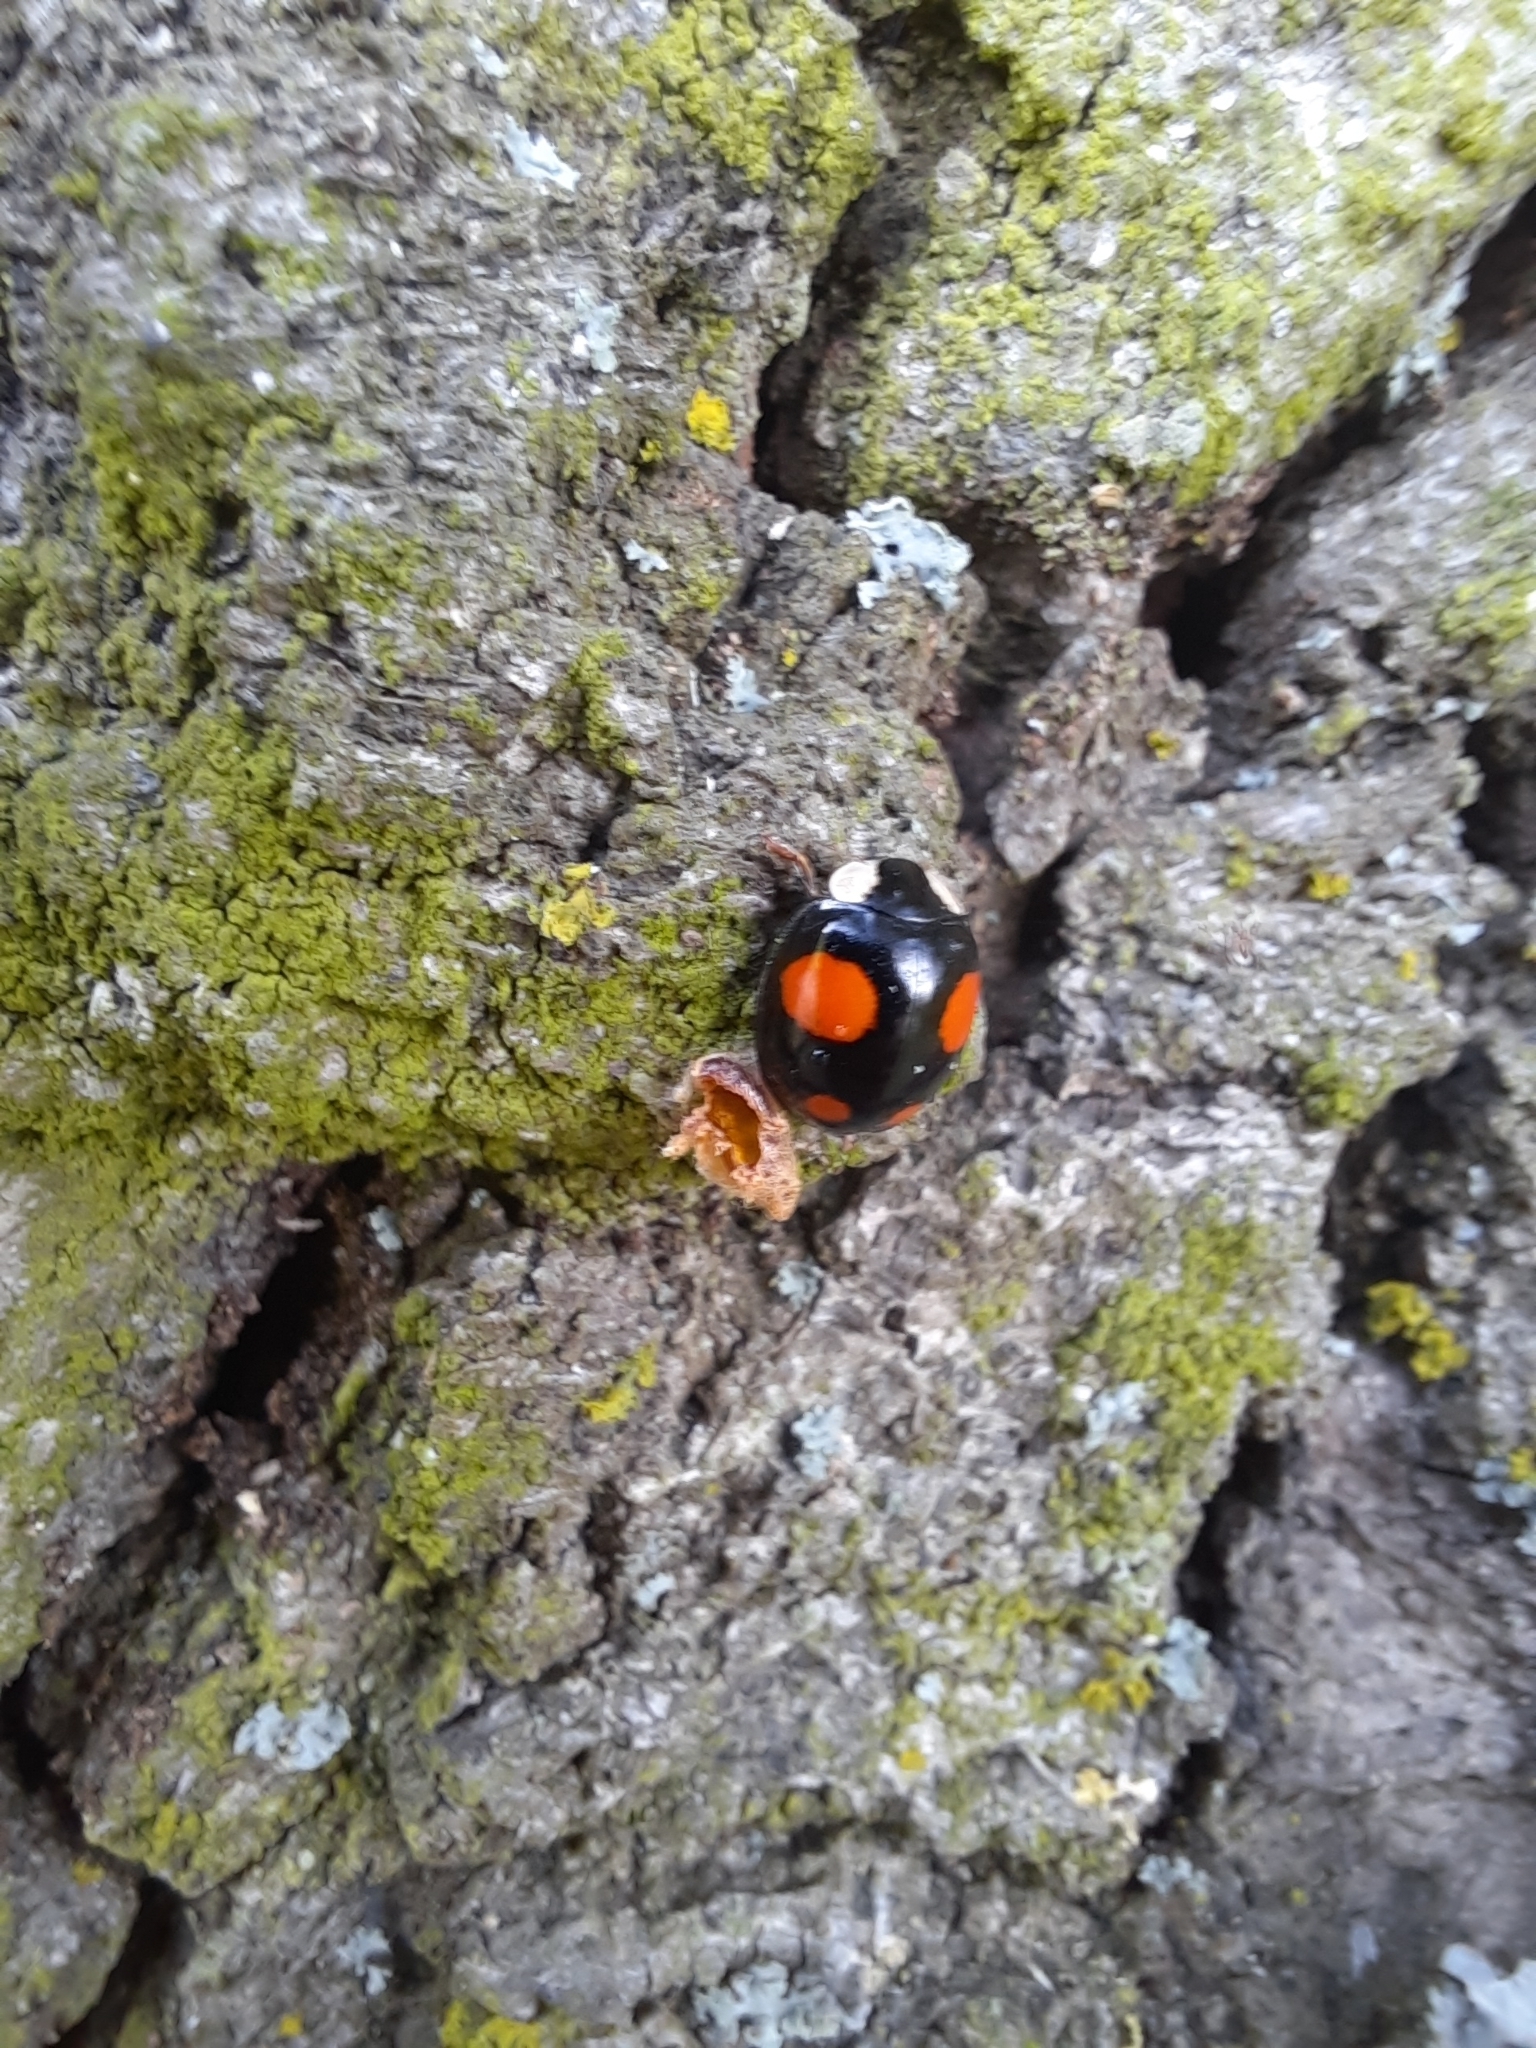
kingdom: Animalia
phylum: Arthropoda
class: Insecta
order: Coleoptera
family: Coccinellidae
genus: Harmonia
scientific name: Harmonia axyridis
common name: Harlequin ladybird
